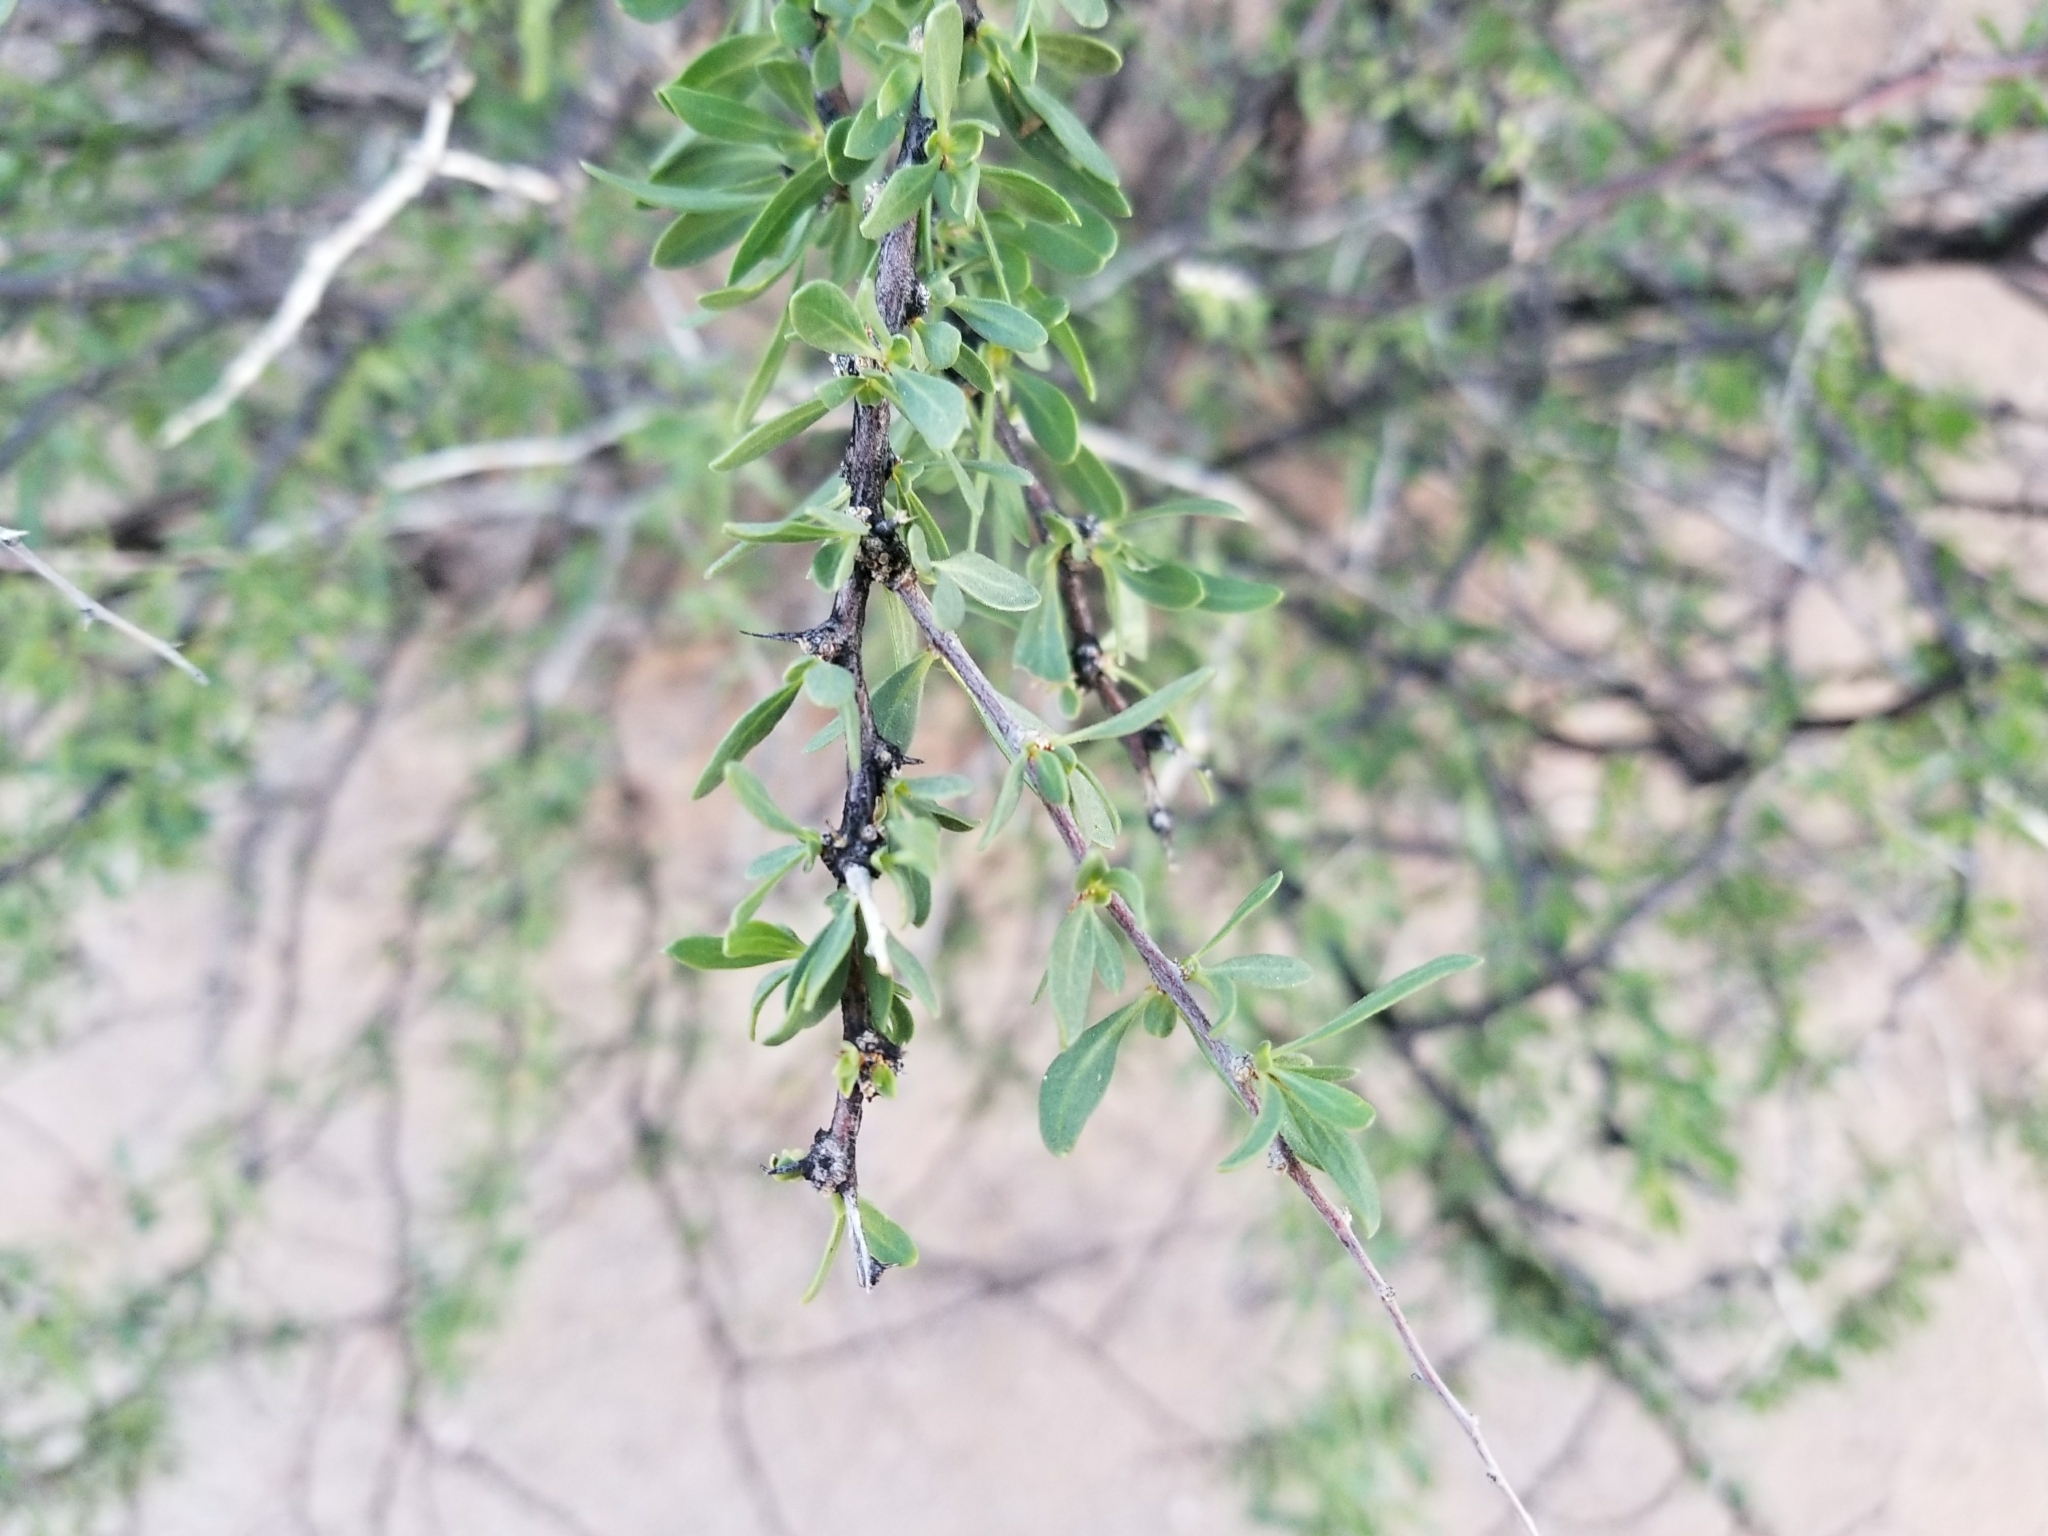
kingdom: Plantae
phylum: Tracheophyta
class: Magnoliopsida
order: Solanales
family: Solanaceae
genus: Lycium
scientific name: Lycium berlandieri
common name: Berlandier wolfberry
